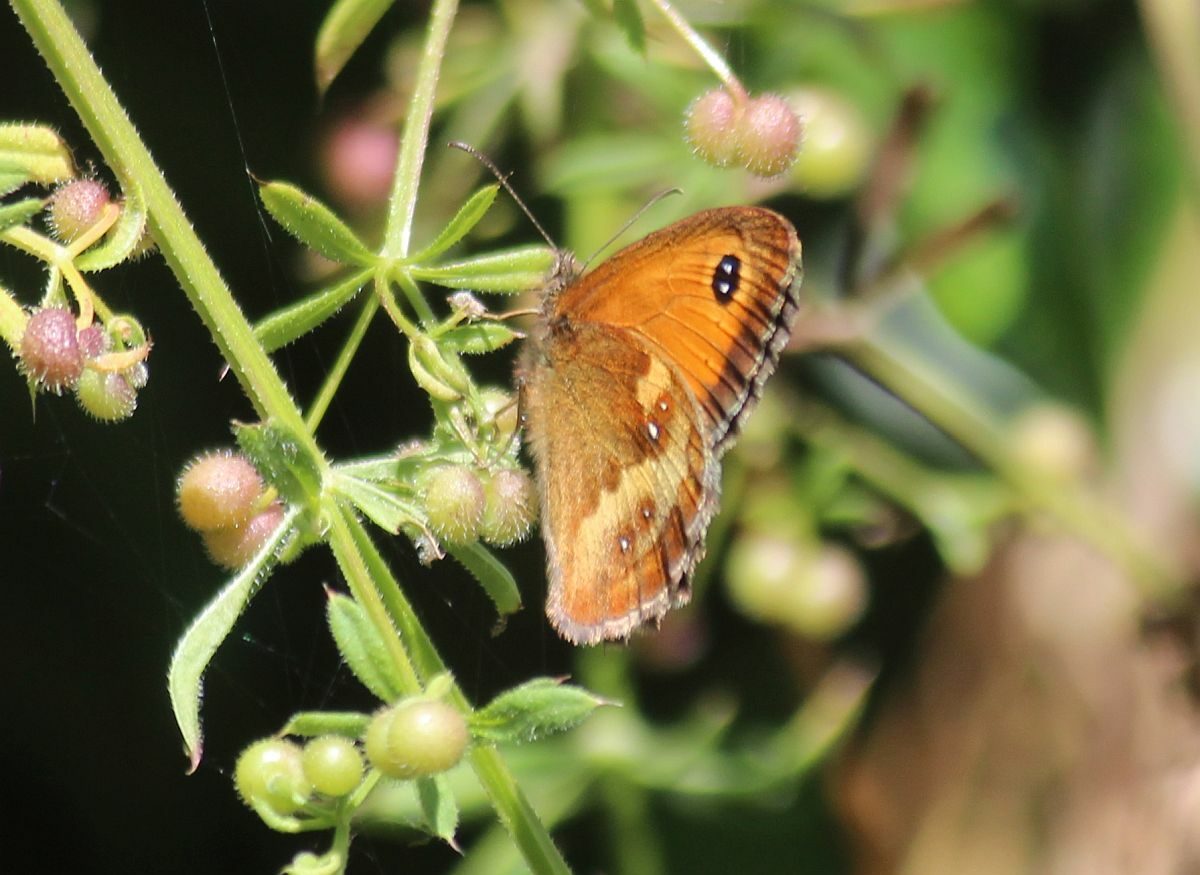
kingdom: Animalia
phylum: Arthropoda
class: Insecta
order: Lepidoptera
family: Nymphalidae
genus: Pyronia
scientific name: Pyronia tithonus
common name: Gatekeeper
